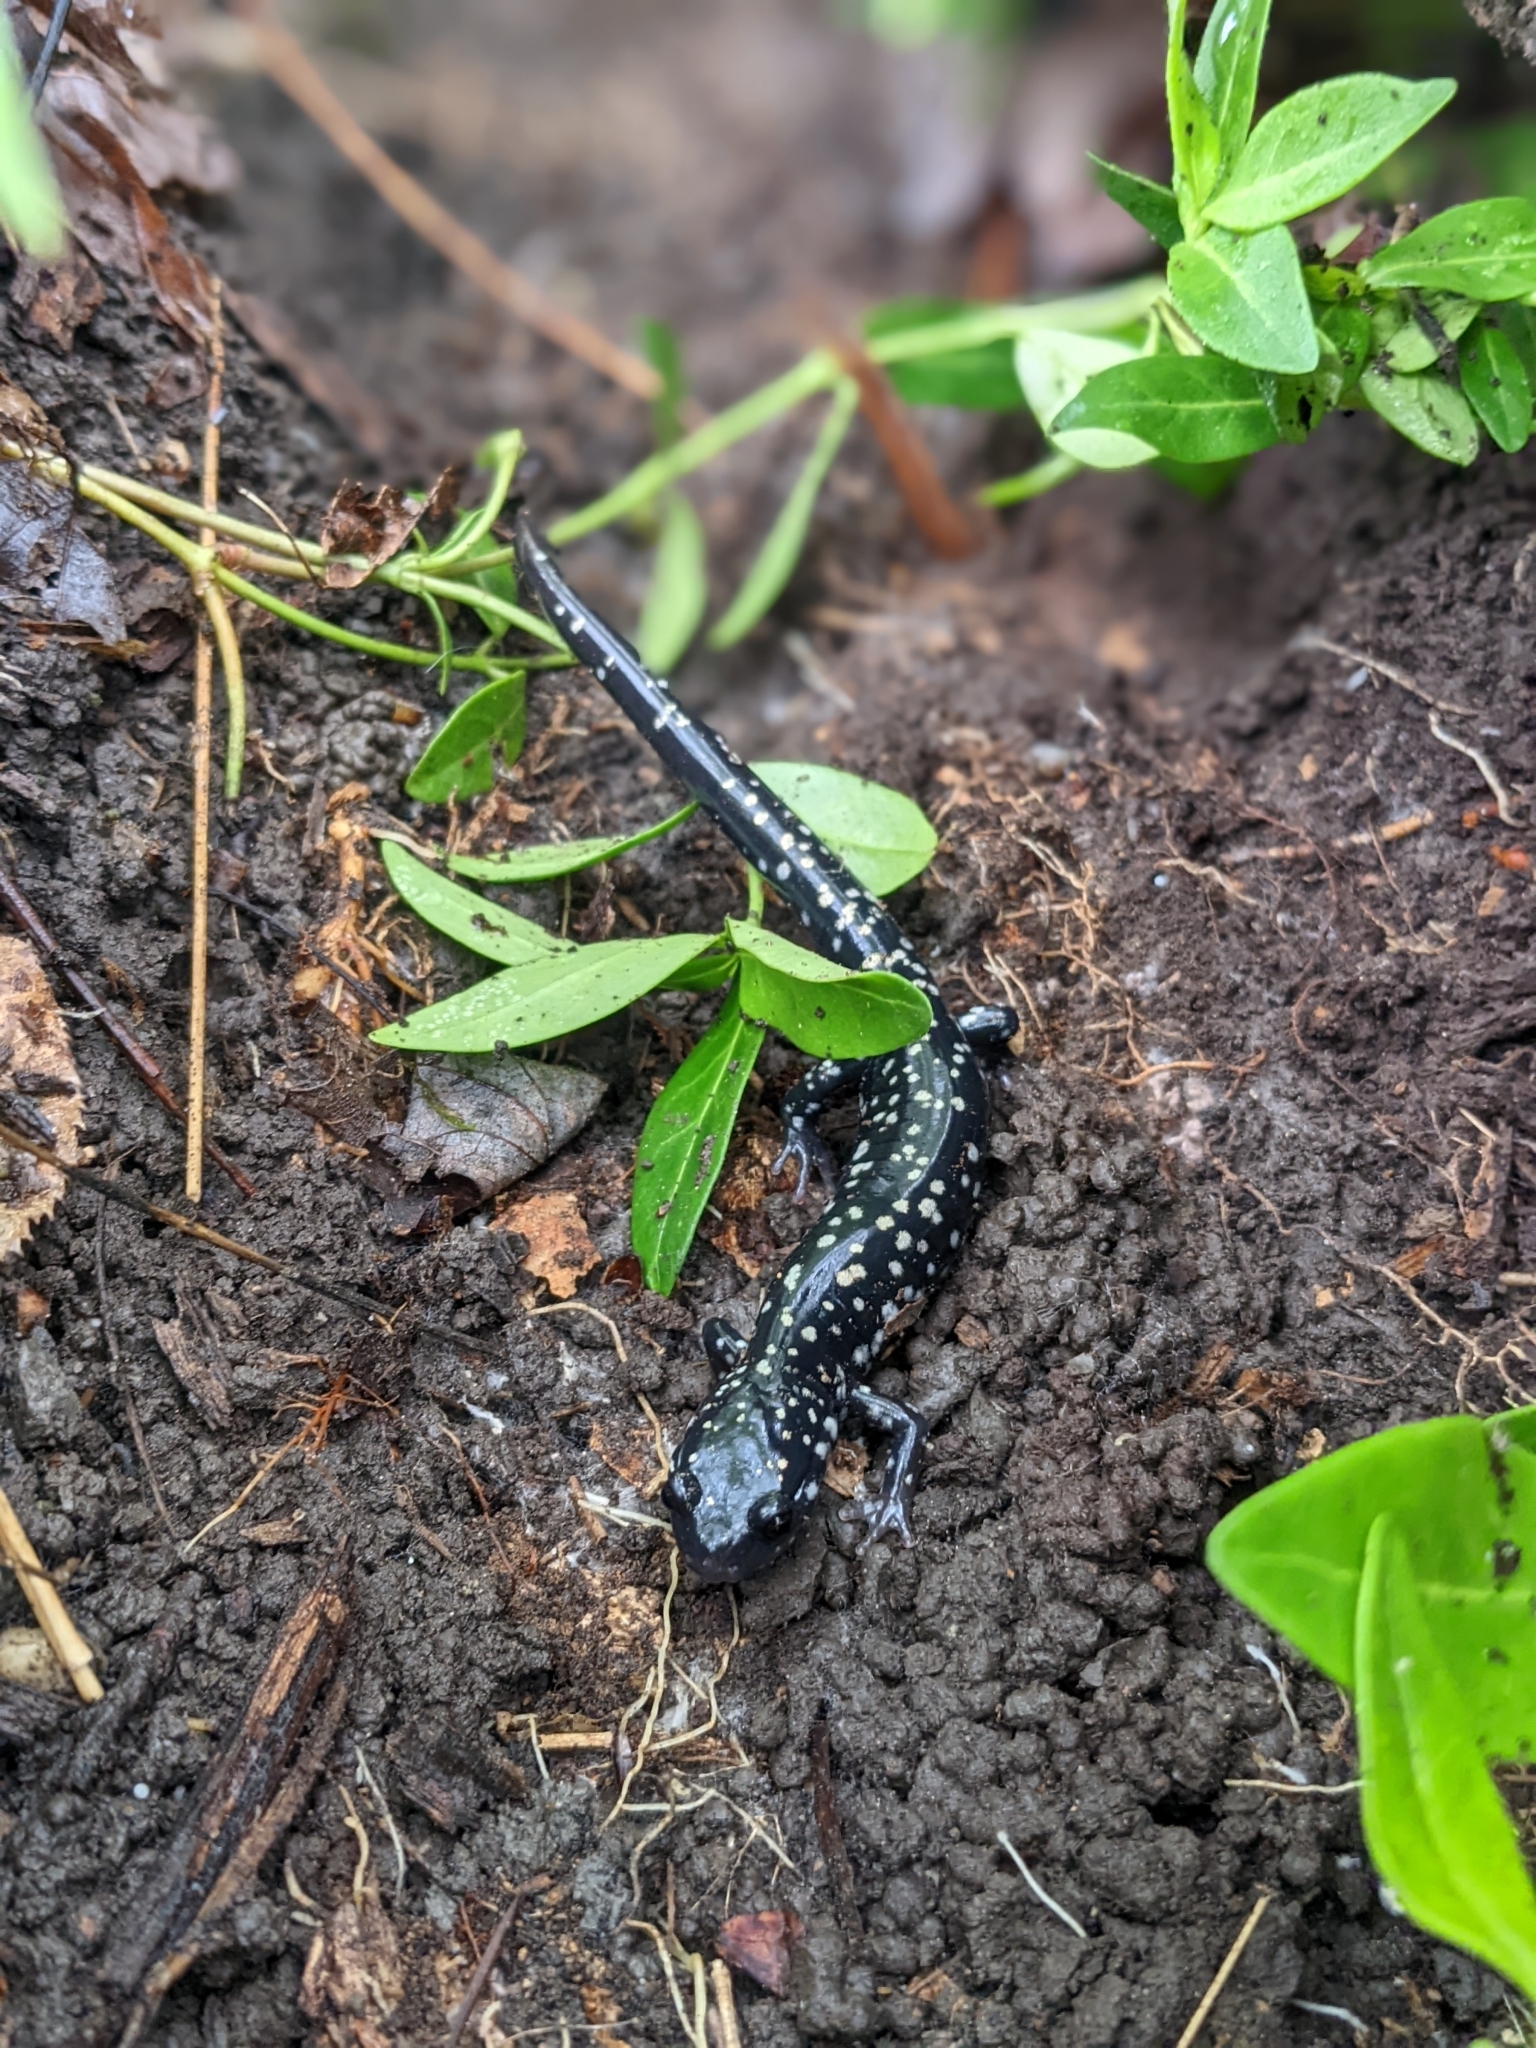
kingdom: Animalia
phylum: Chordata
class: Amphibia
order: Caudata
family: Plethodontidae
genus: Plethodon
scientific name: Plethodon glutinosus
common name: Northern slimy salamander
